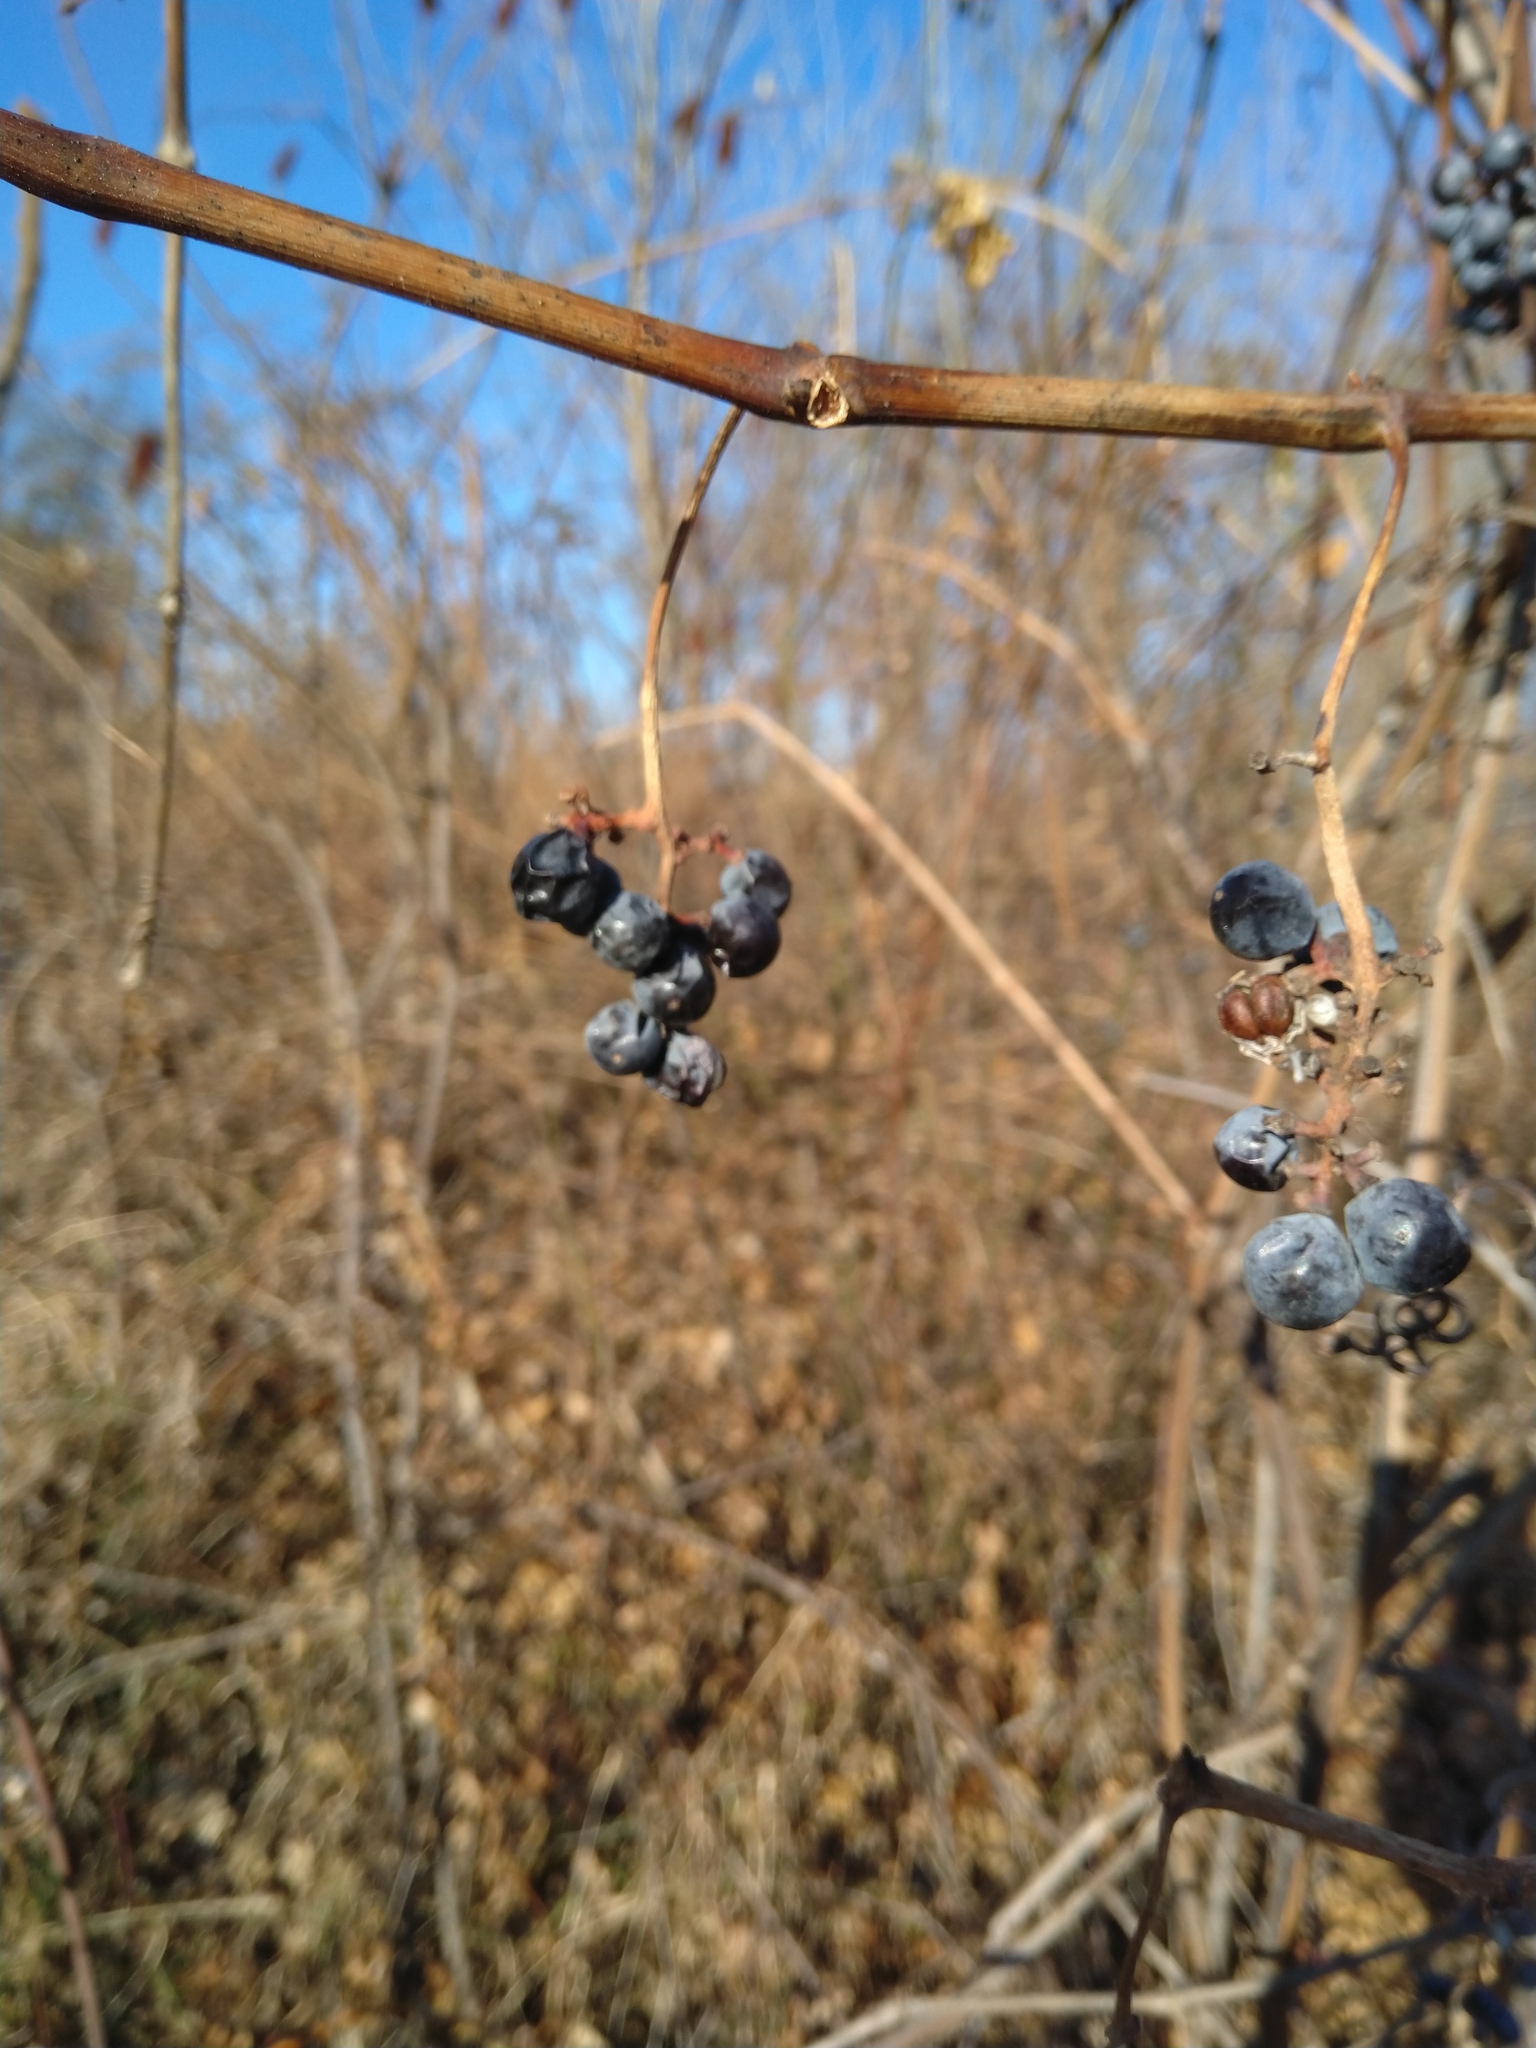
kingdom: Plantae
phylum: Tracheophyta
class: Magnoliopsida
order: Vitales
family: Vitaceae
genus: Vitis
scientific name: Vitis riparia
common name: Frost grape
